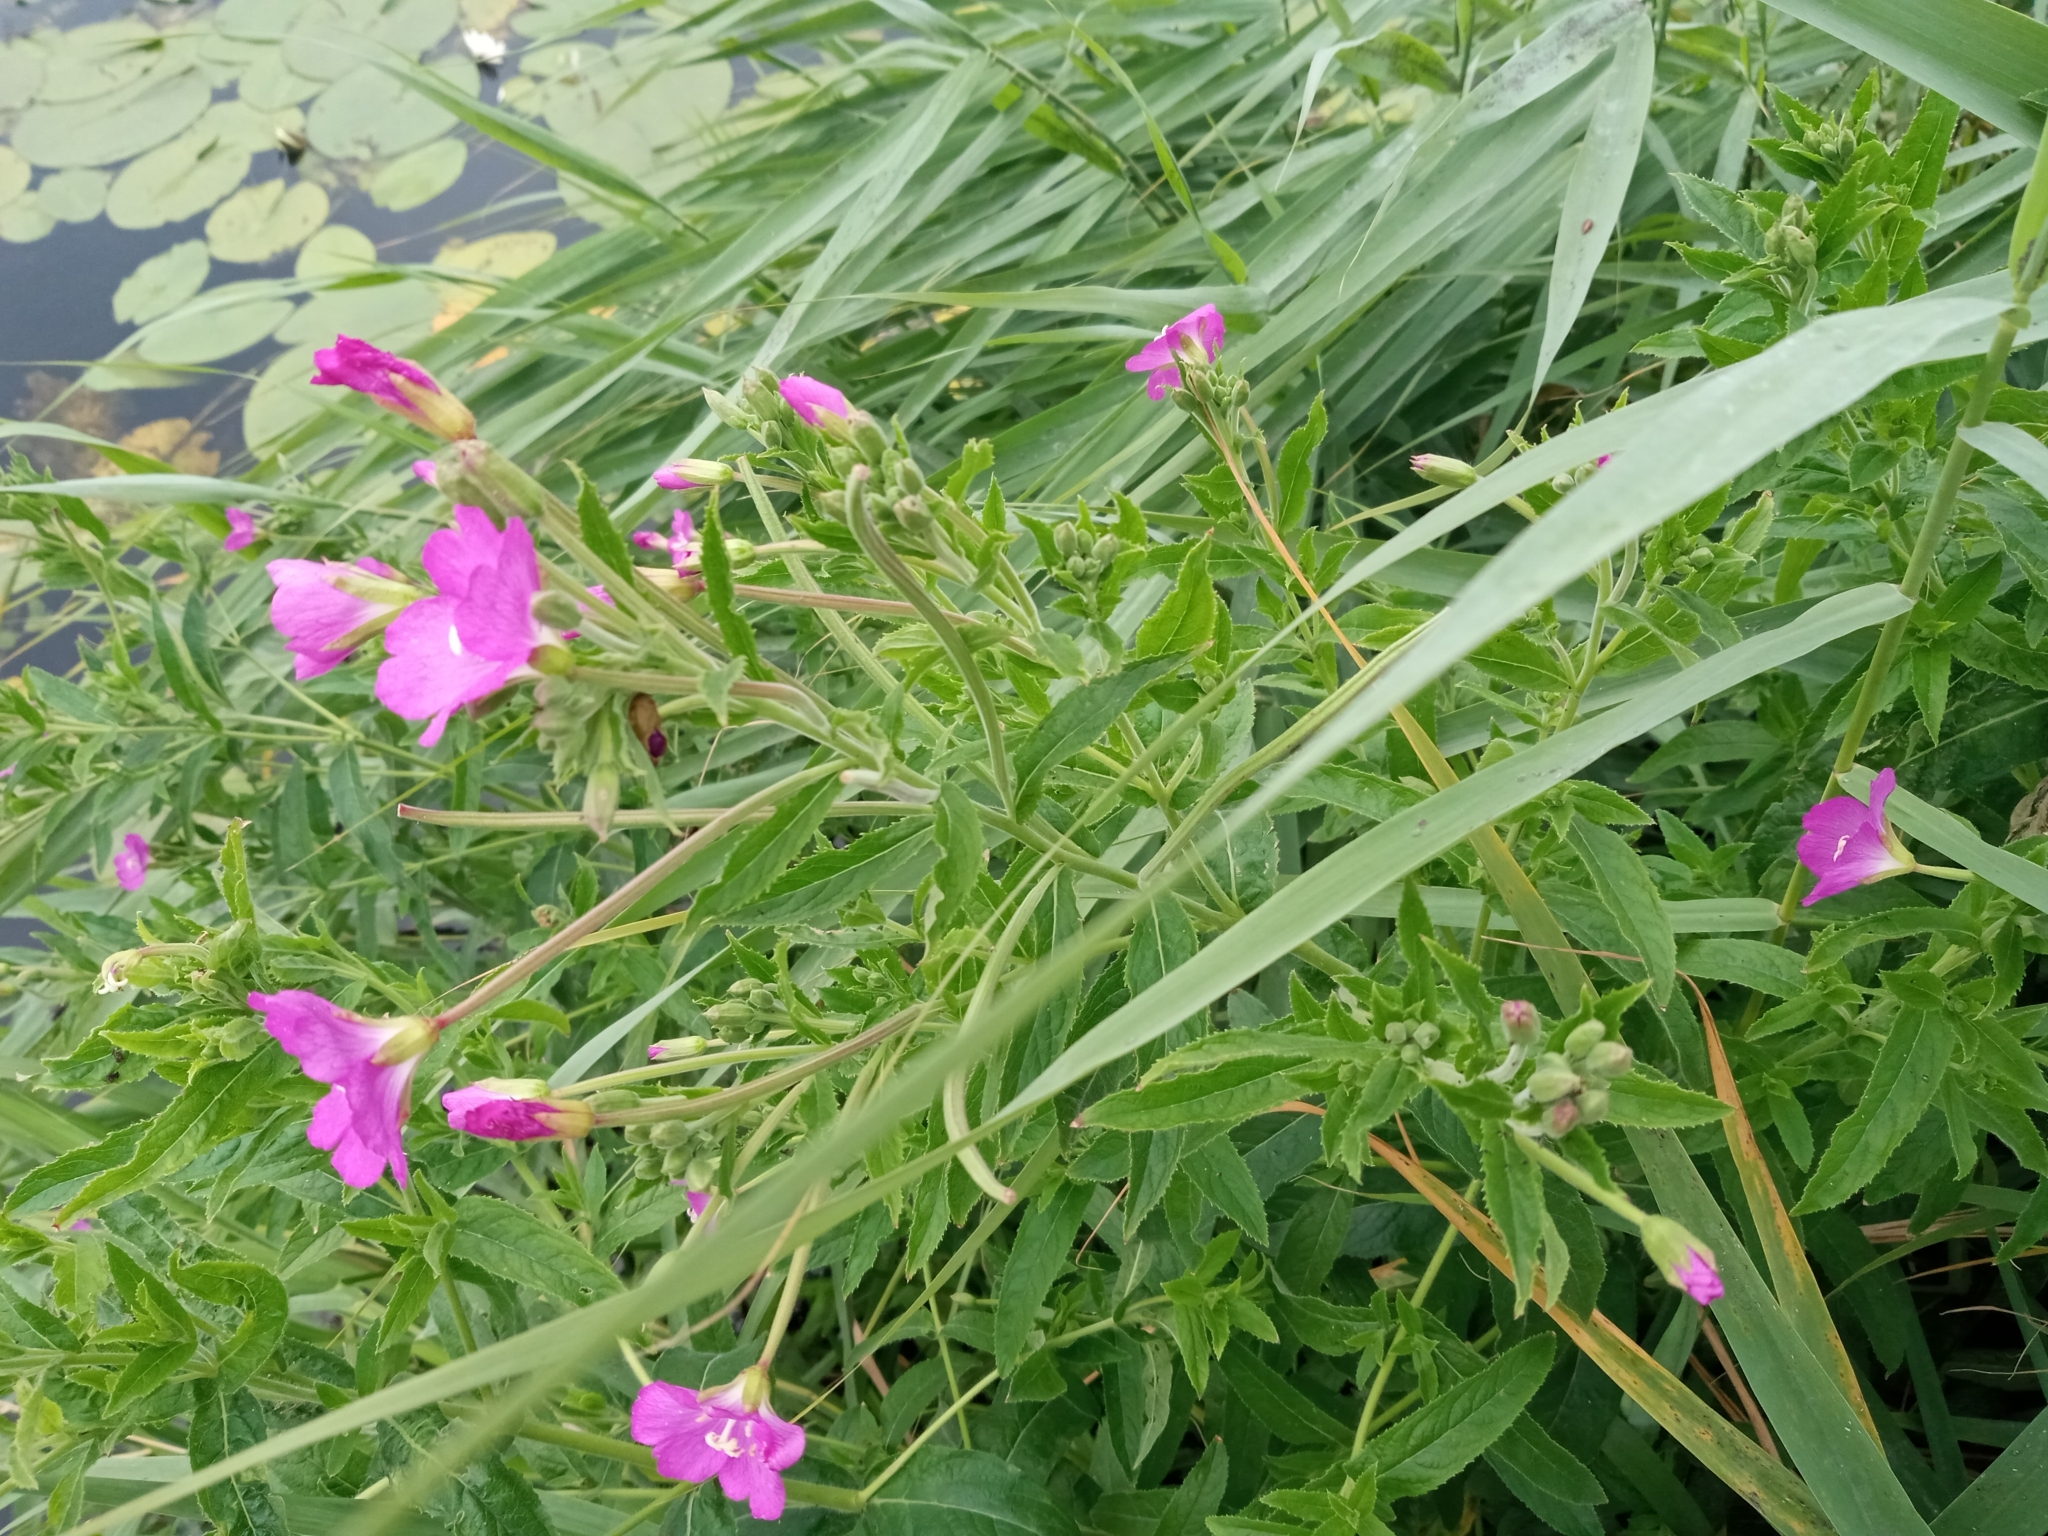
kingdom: Plantae
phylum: Tracheophyta
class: Magnoliopsida
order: Myrtales
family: Onagraceae
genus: Epilobium
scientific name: Epilobium hirsutum
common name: Great willowherb
